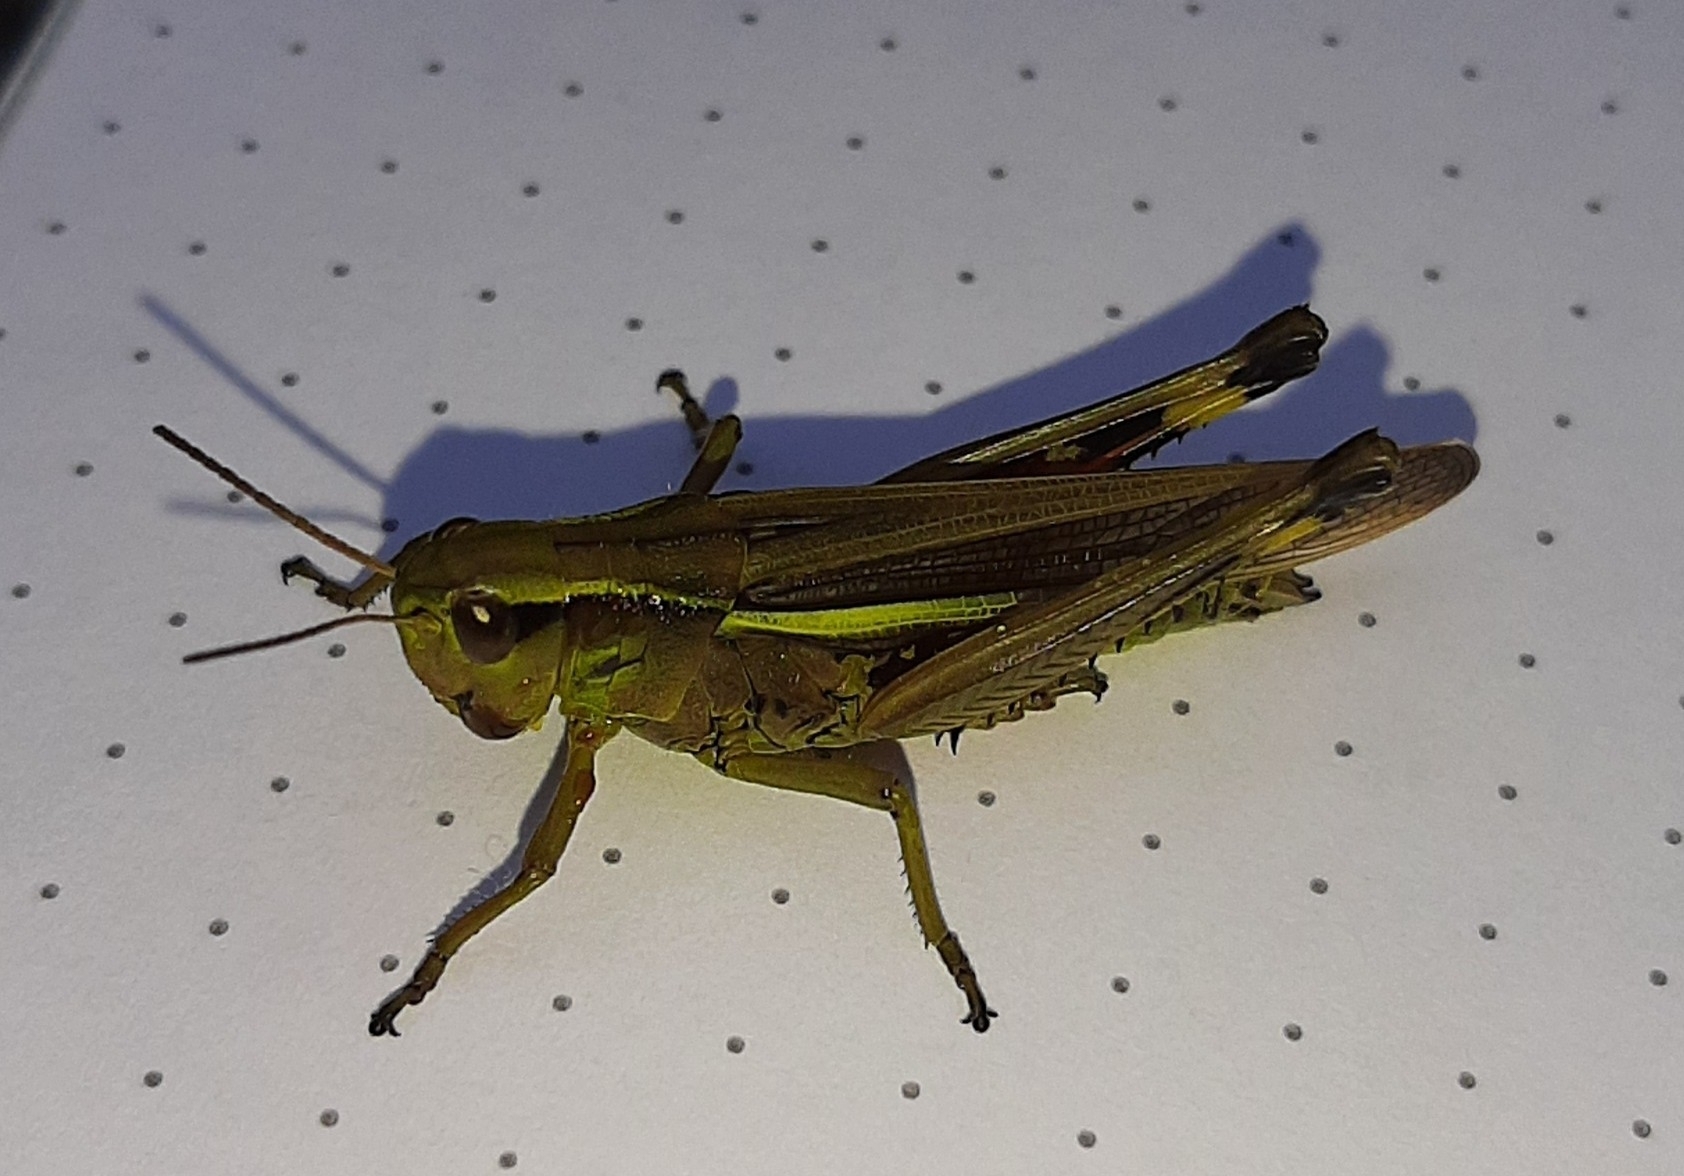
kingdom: Animalia
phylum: Arthropoda
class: Insecta
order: Orthoptera
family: Acrididae
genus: Stethophyma
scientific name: Stethophyma grossum
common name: Large marsh grasshopper
